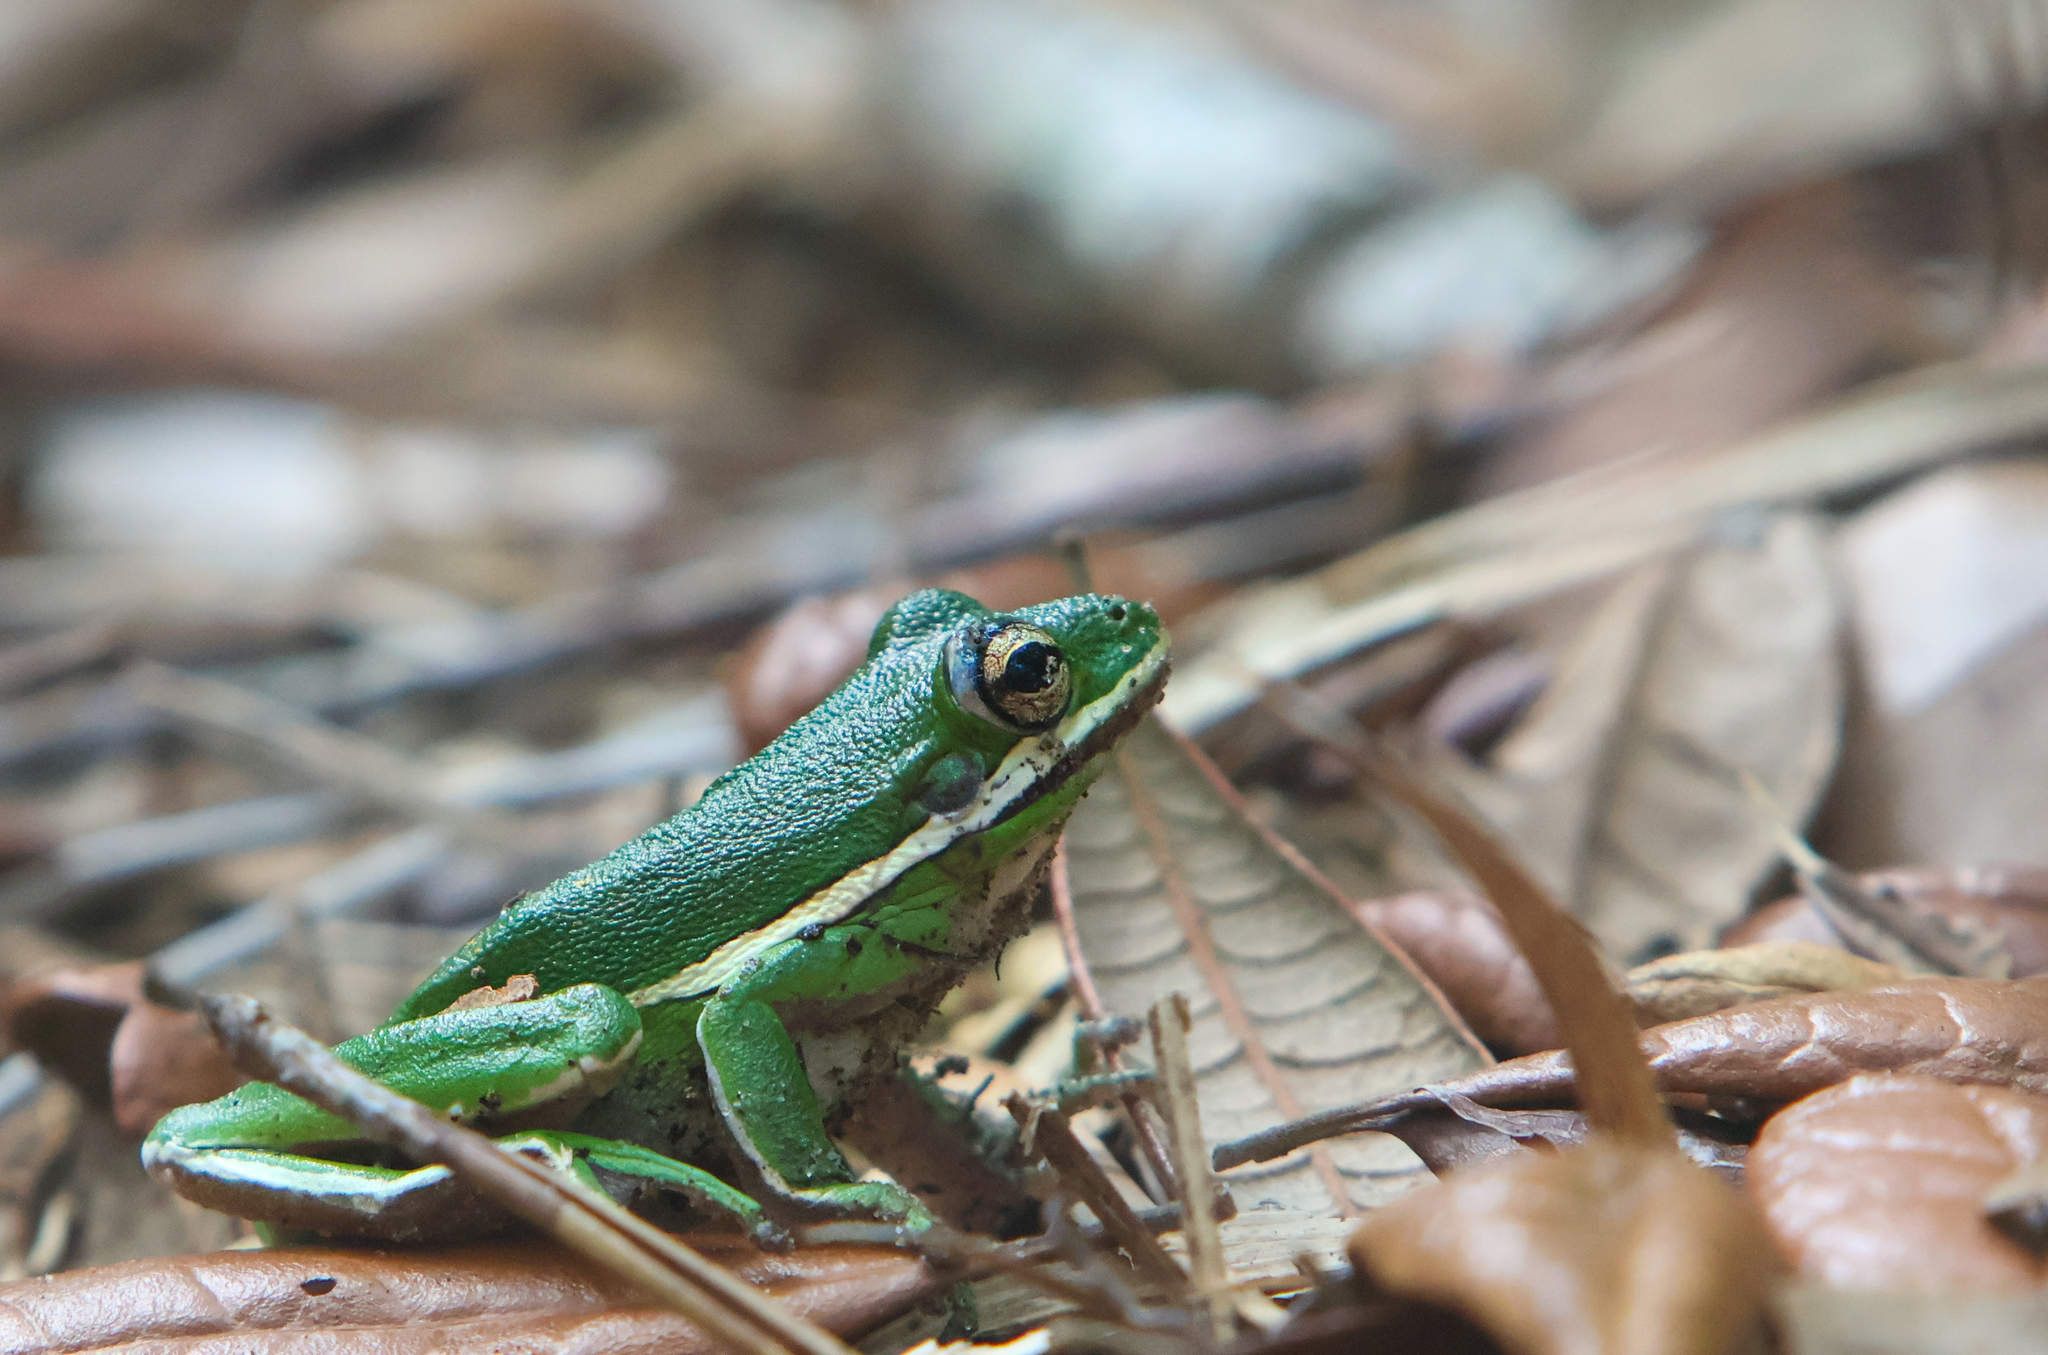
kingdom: Animalia
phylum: Chordata
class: Amphibia
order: Anura
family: Hylidae
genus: Dryophytes
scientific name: Dryophytes cinereus
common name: Green treefrog
